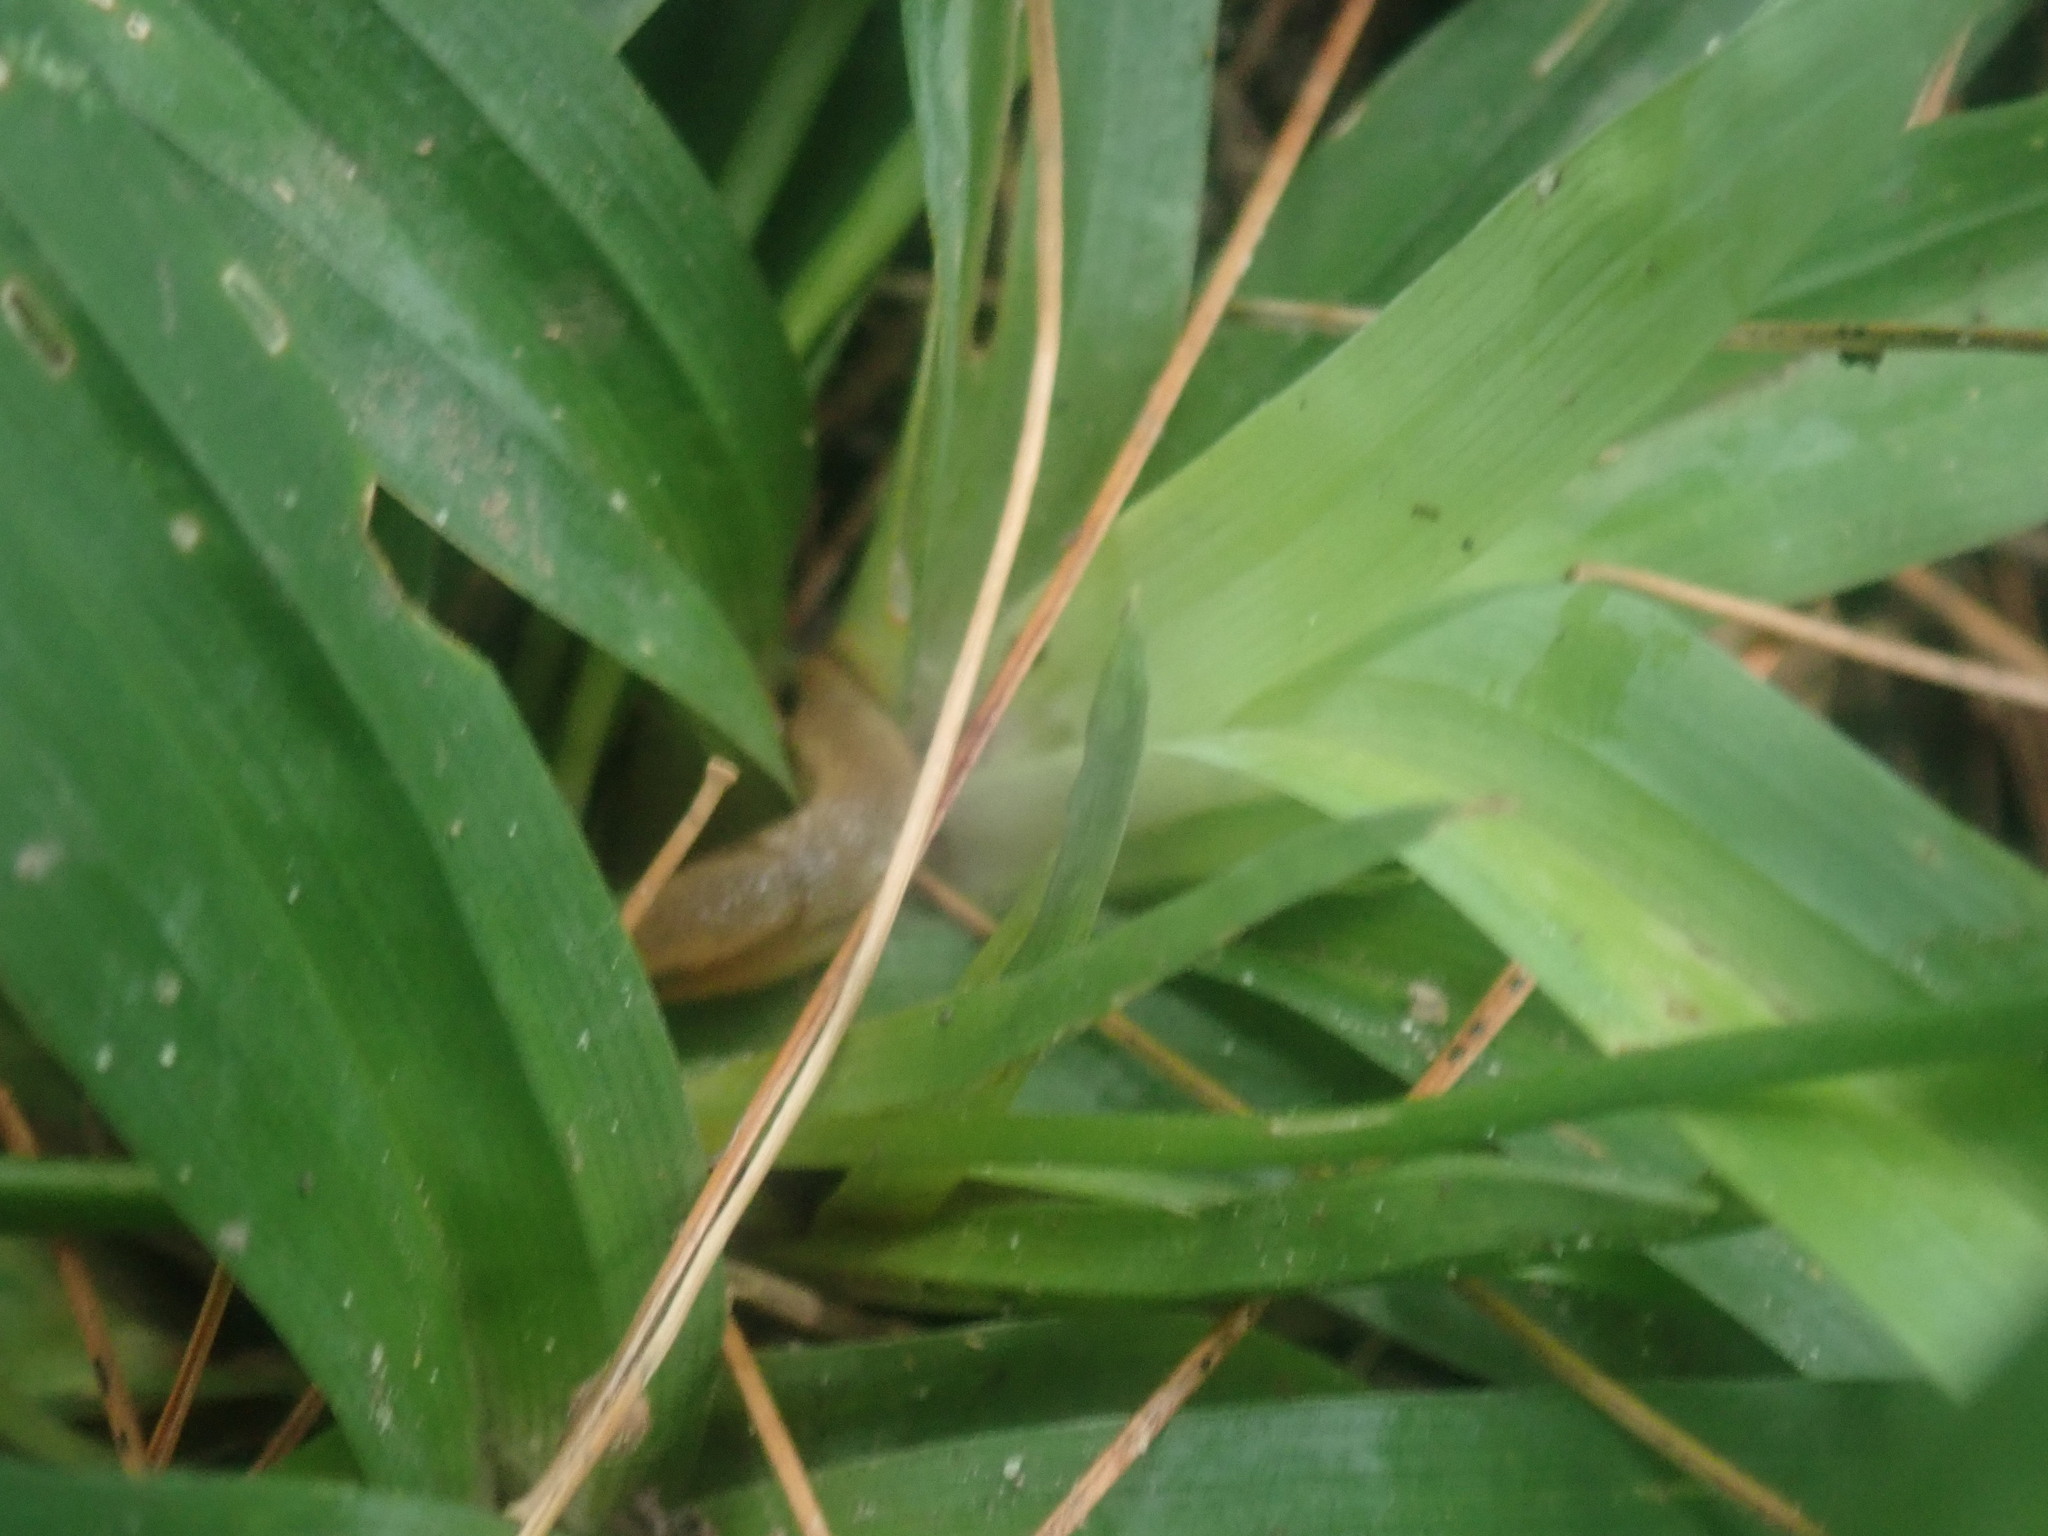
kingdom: Plantae
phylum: Tracheophyta
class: Liliopsida
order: Poales
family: Cyperaceae
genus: Carex
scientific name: Carex platyphylla
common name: Broad-leaved sedge
